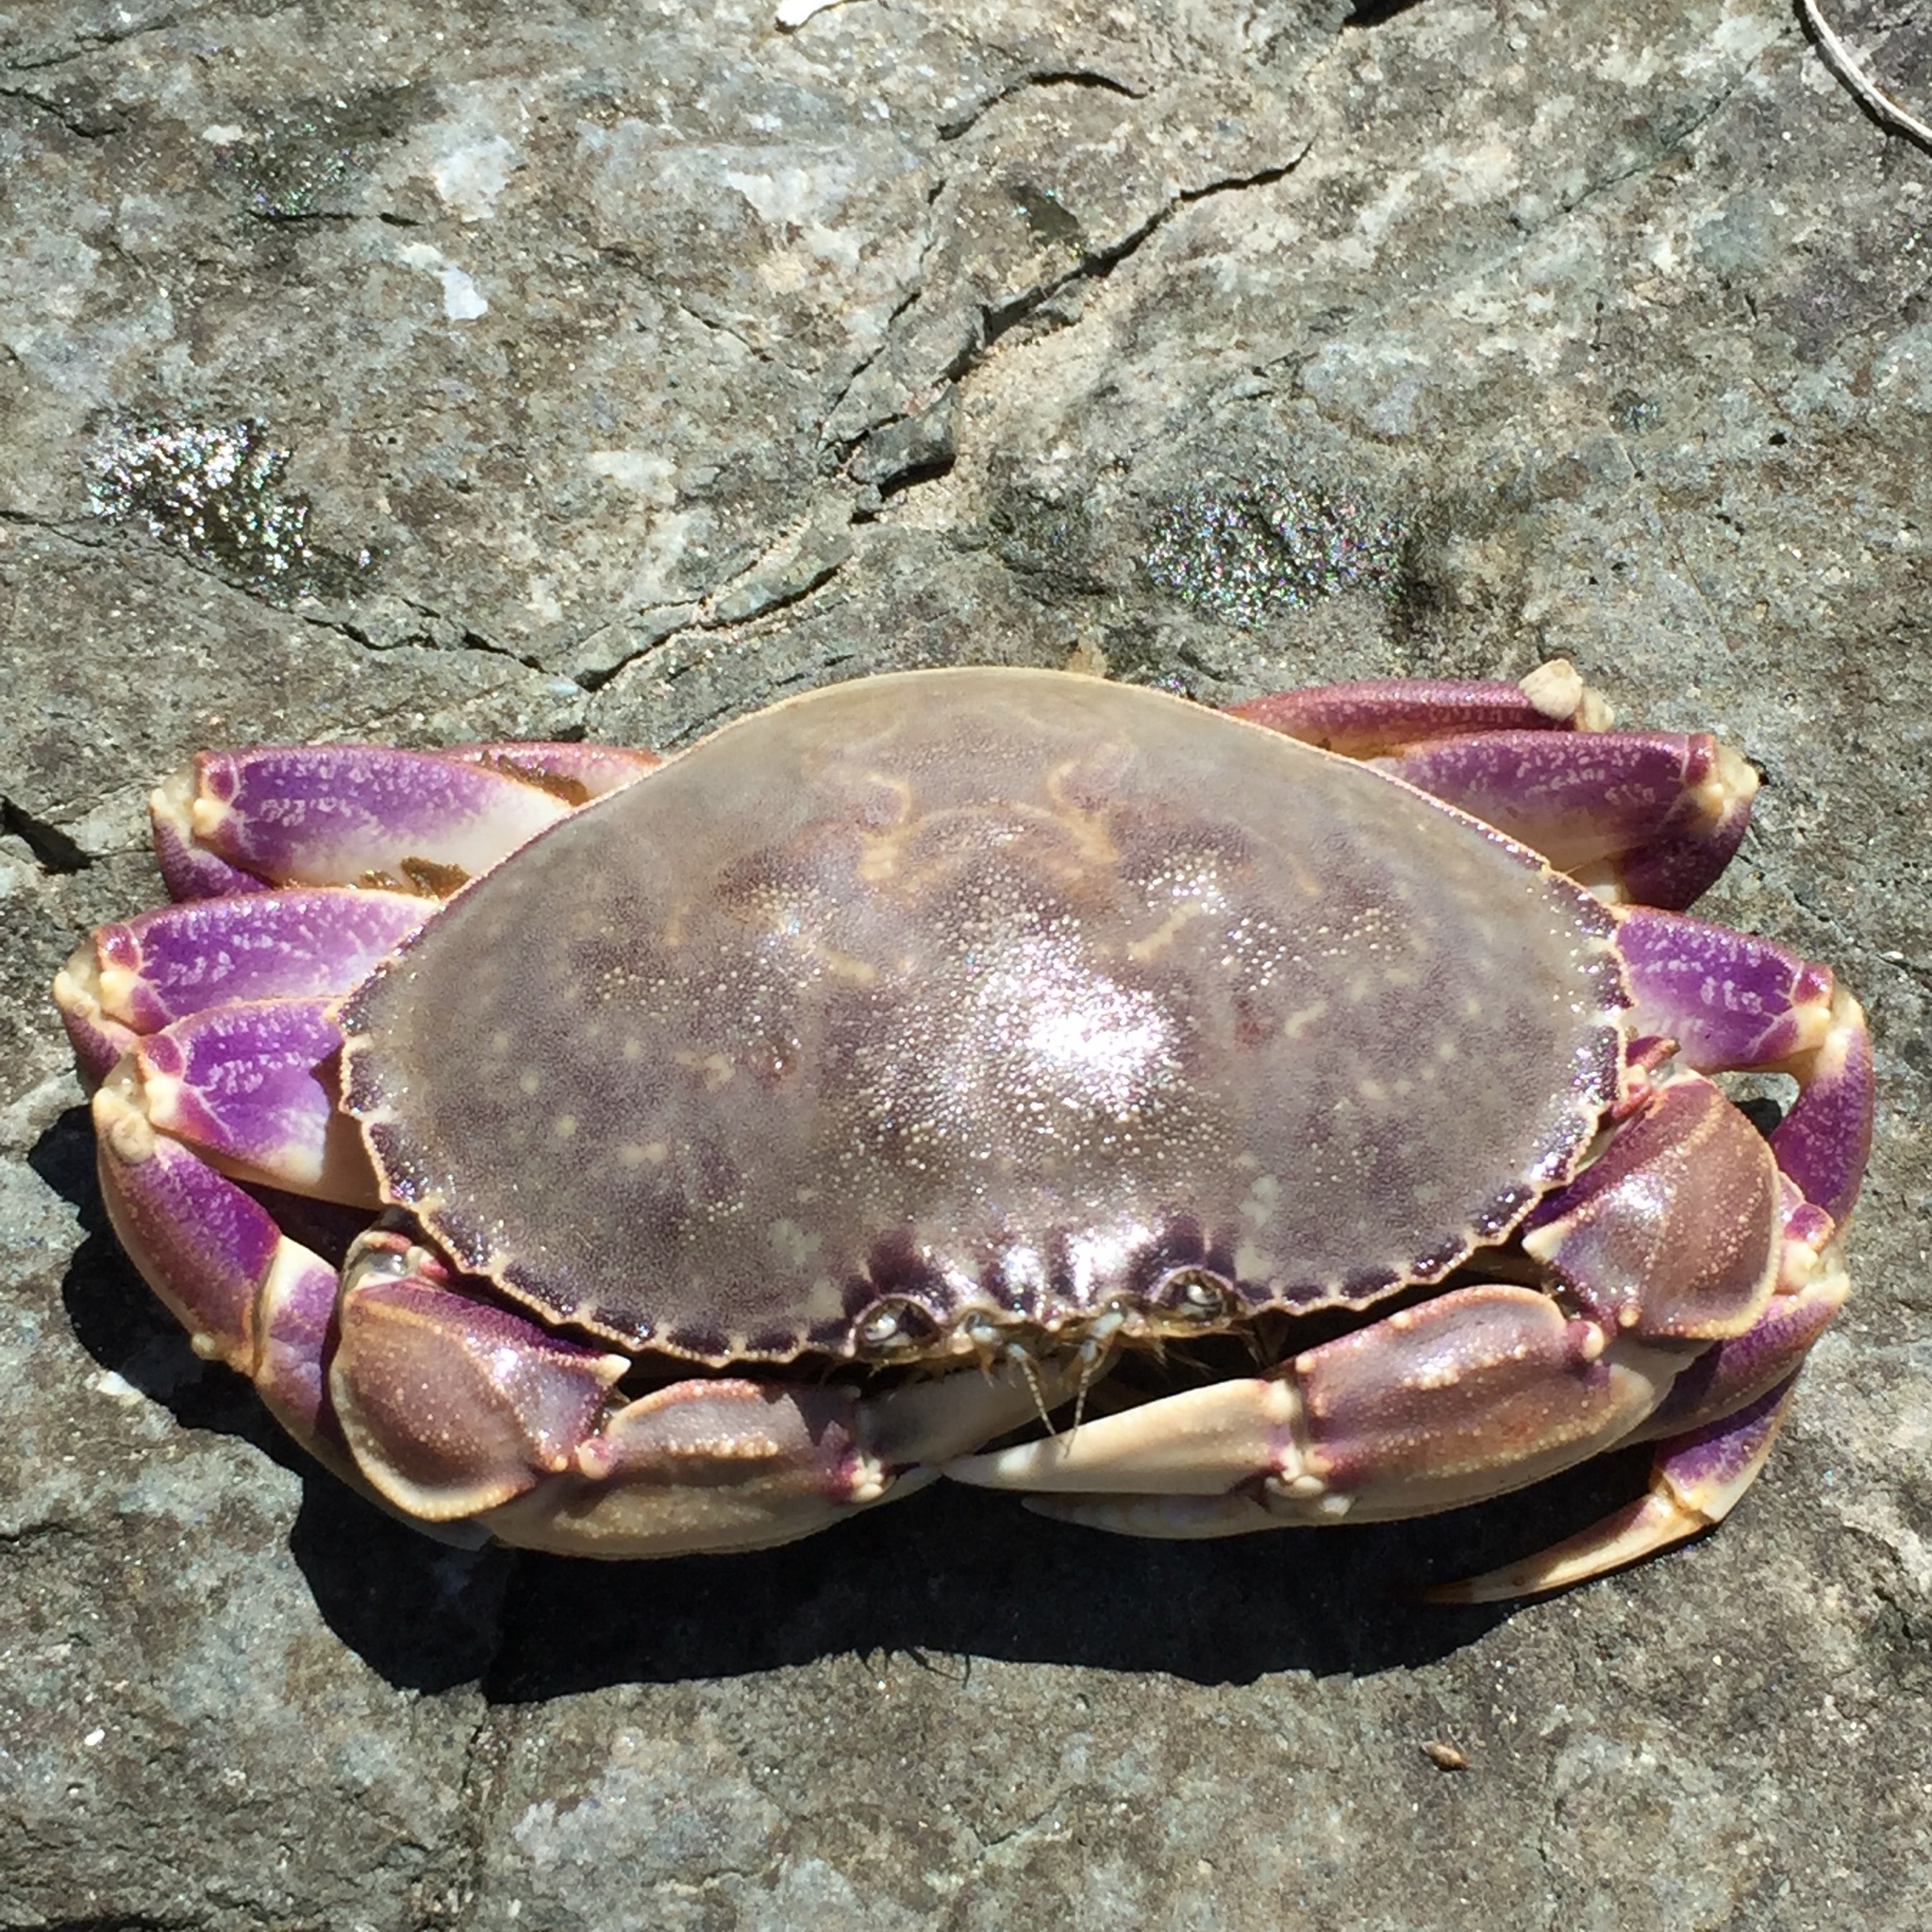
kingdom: Animalia
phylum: Arthropoda
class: Malacostraca
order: Decapoda
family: Cancridae
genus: Metacarcinus
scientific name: Metacarcinus gracilis
